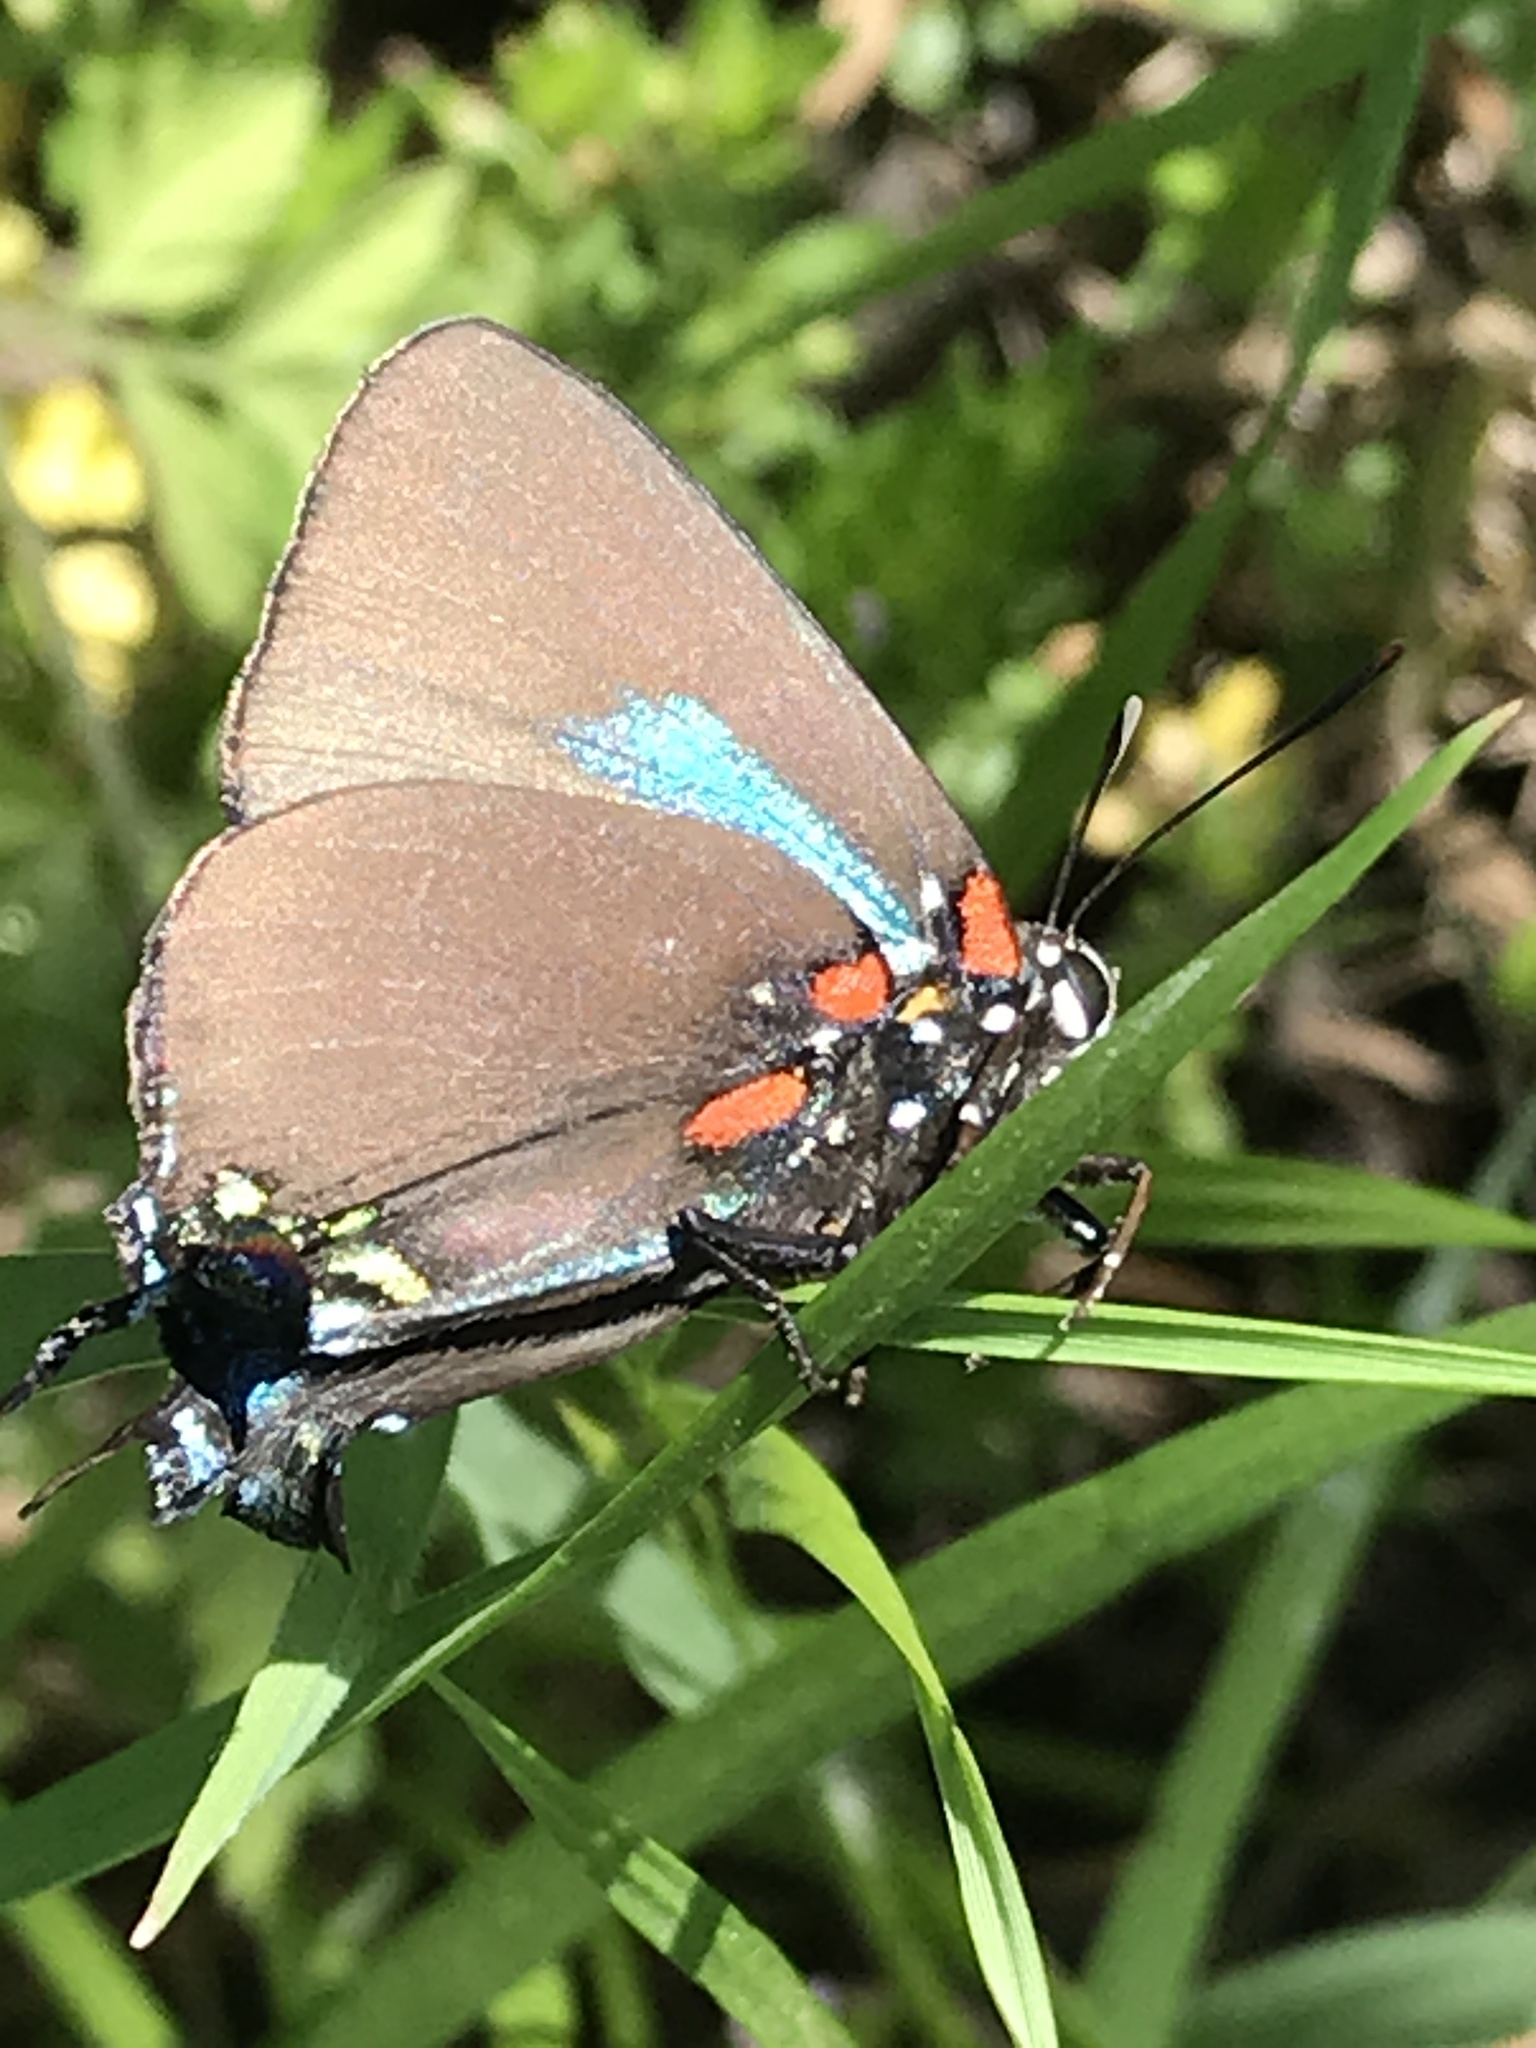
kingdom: Animalia
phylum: Arthropoda
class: Insecta
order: Lepidoptera
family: Lycaenidae
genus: Atlides
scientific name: Atlides halesus
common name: Great purple hairstreak
